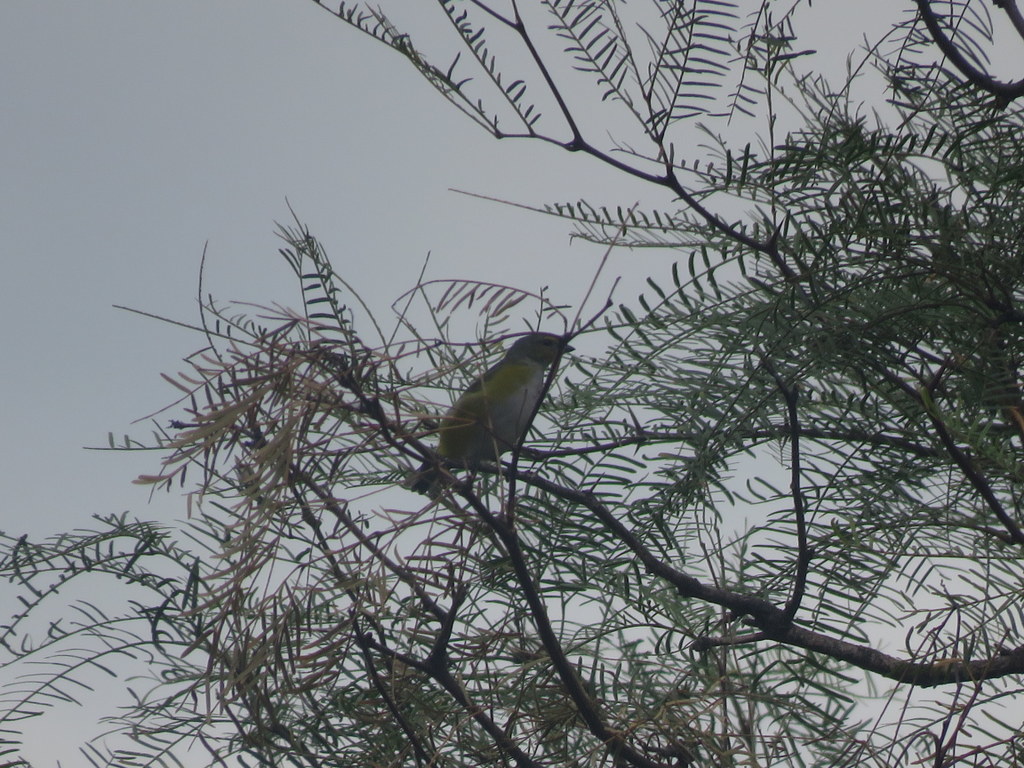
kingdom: Animalia
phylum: Chordata
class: Aves
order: Passeriformes
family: Fringillidae
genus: Euphonia
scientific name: Euphonia chlorotica
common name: Purple-throated euphonia
